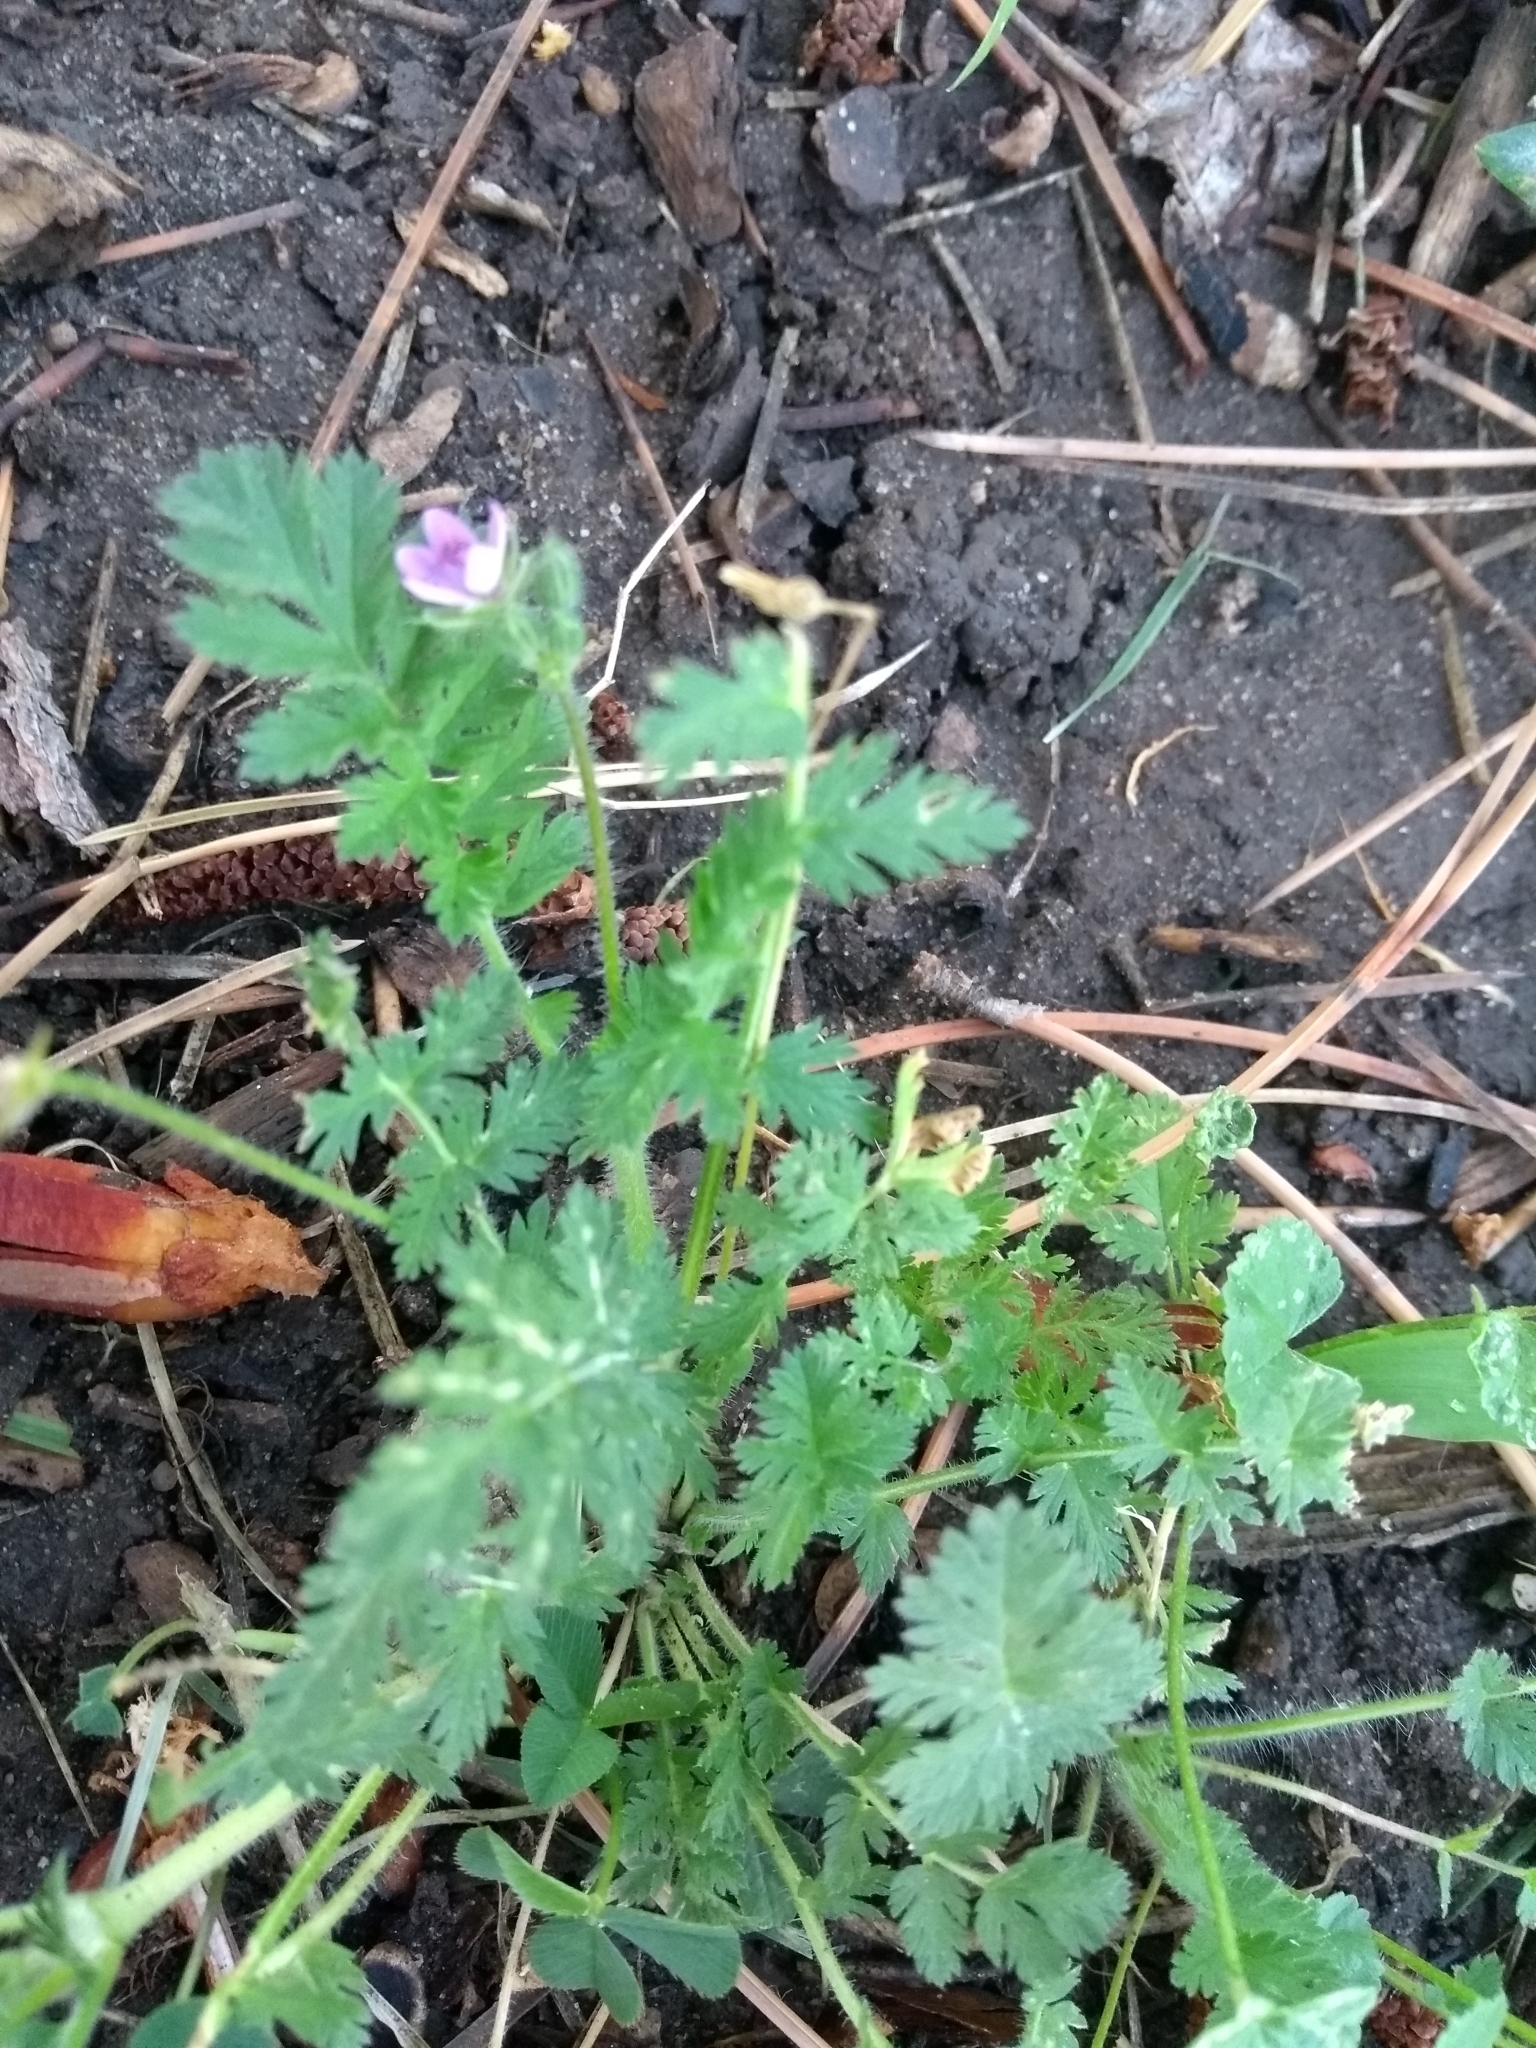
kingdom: Plantae
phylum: Tracheophyta
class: Magnoliopsida
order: Geraniales
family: Geraniaceae
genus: Erodium
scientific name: Erodium cicutarium
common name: Common stork's-bill
